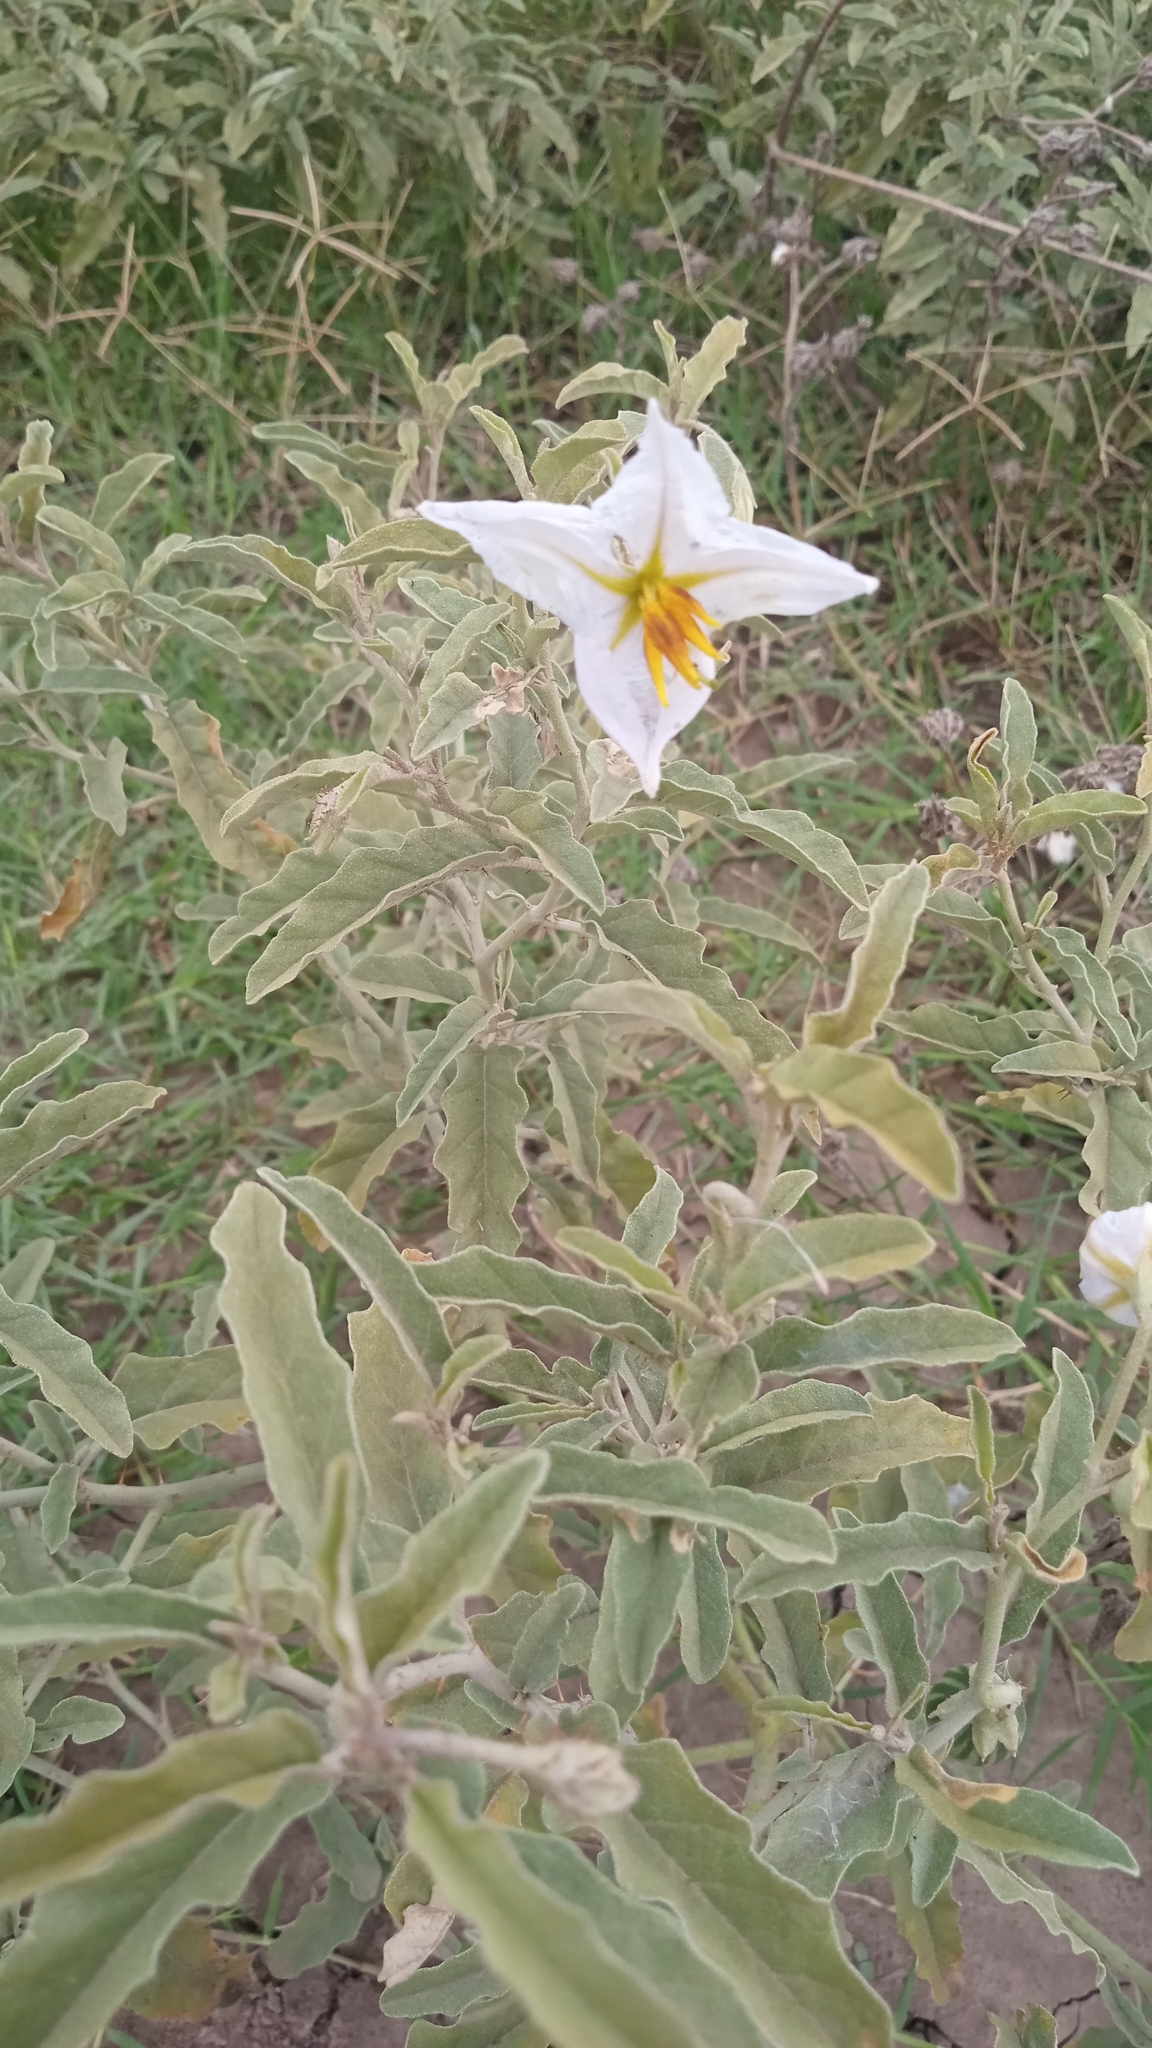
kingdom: Plantae
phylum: Tracheophyta
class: Magnoliopsida
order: Solanales
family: Solanaceae
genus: Solanum
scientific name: Solanum elaeagnifolium
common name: Silverleaf nightshade
